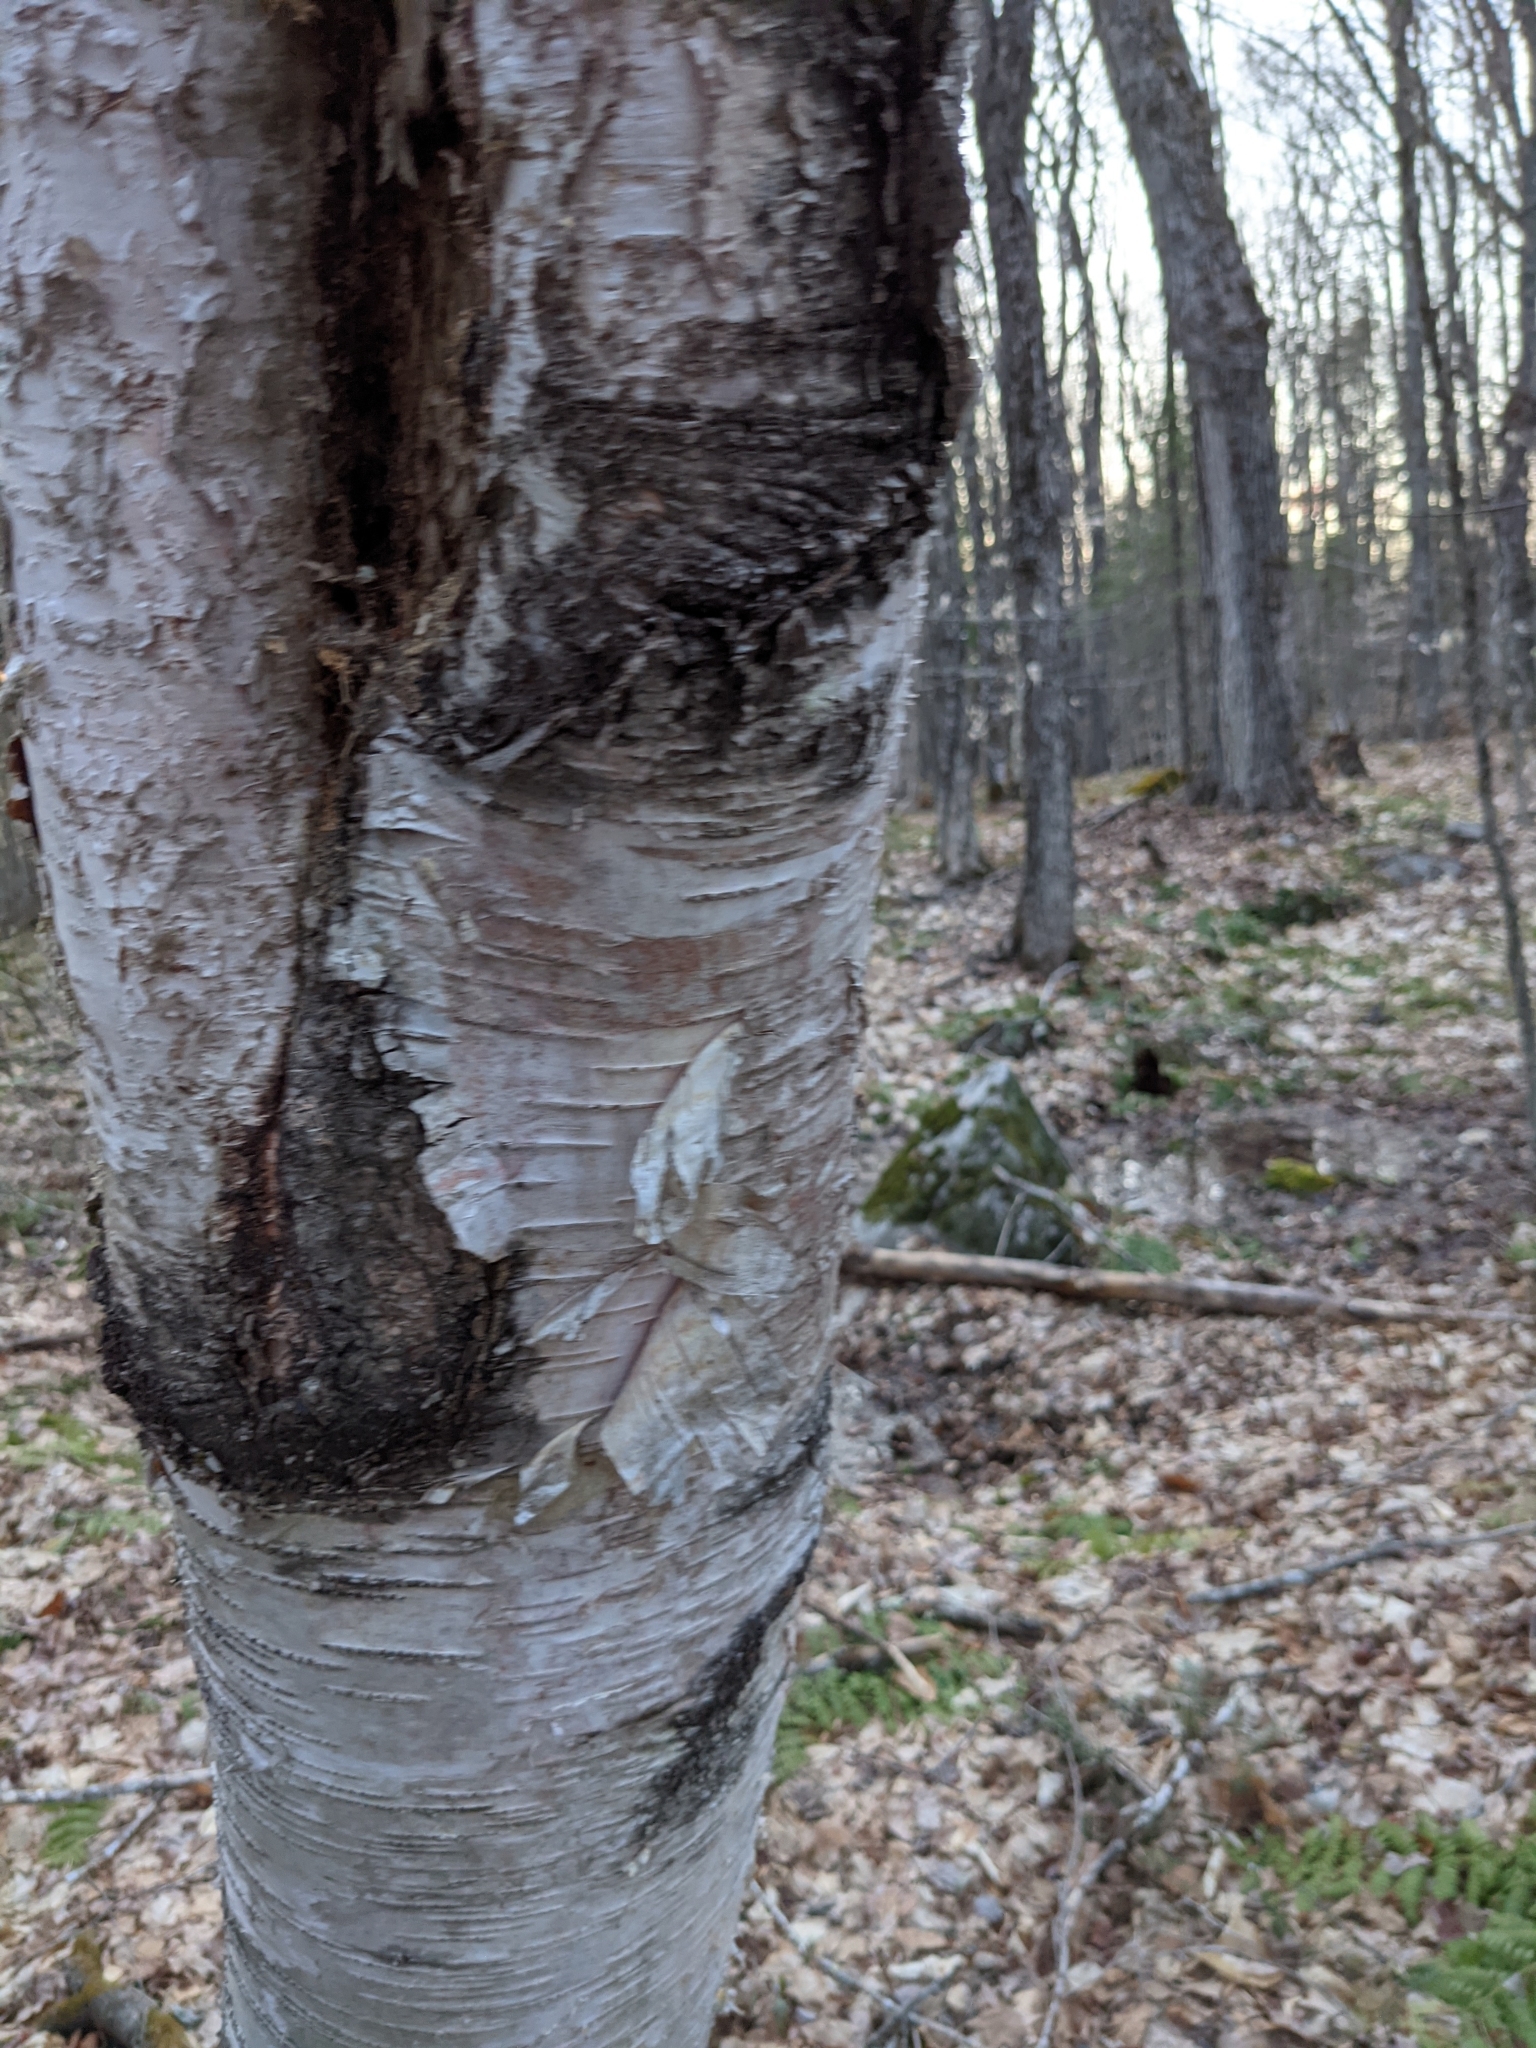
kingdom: Plantae
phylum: Tracheophyta
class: Magnoliopsida
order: Fagales
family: Betulaceae
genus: Betula
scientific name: Betula papyrifera
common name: Paper birch
